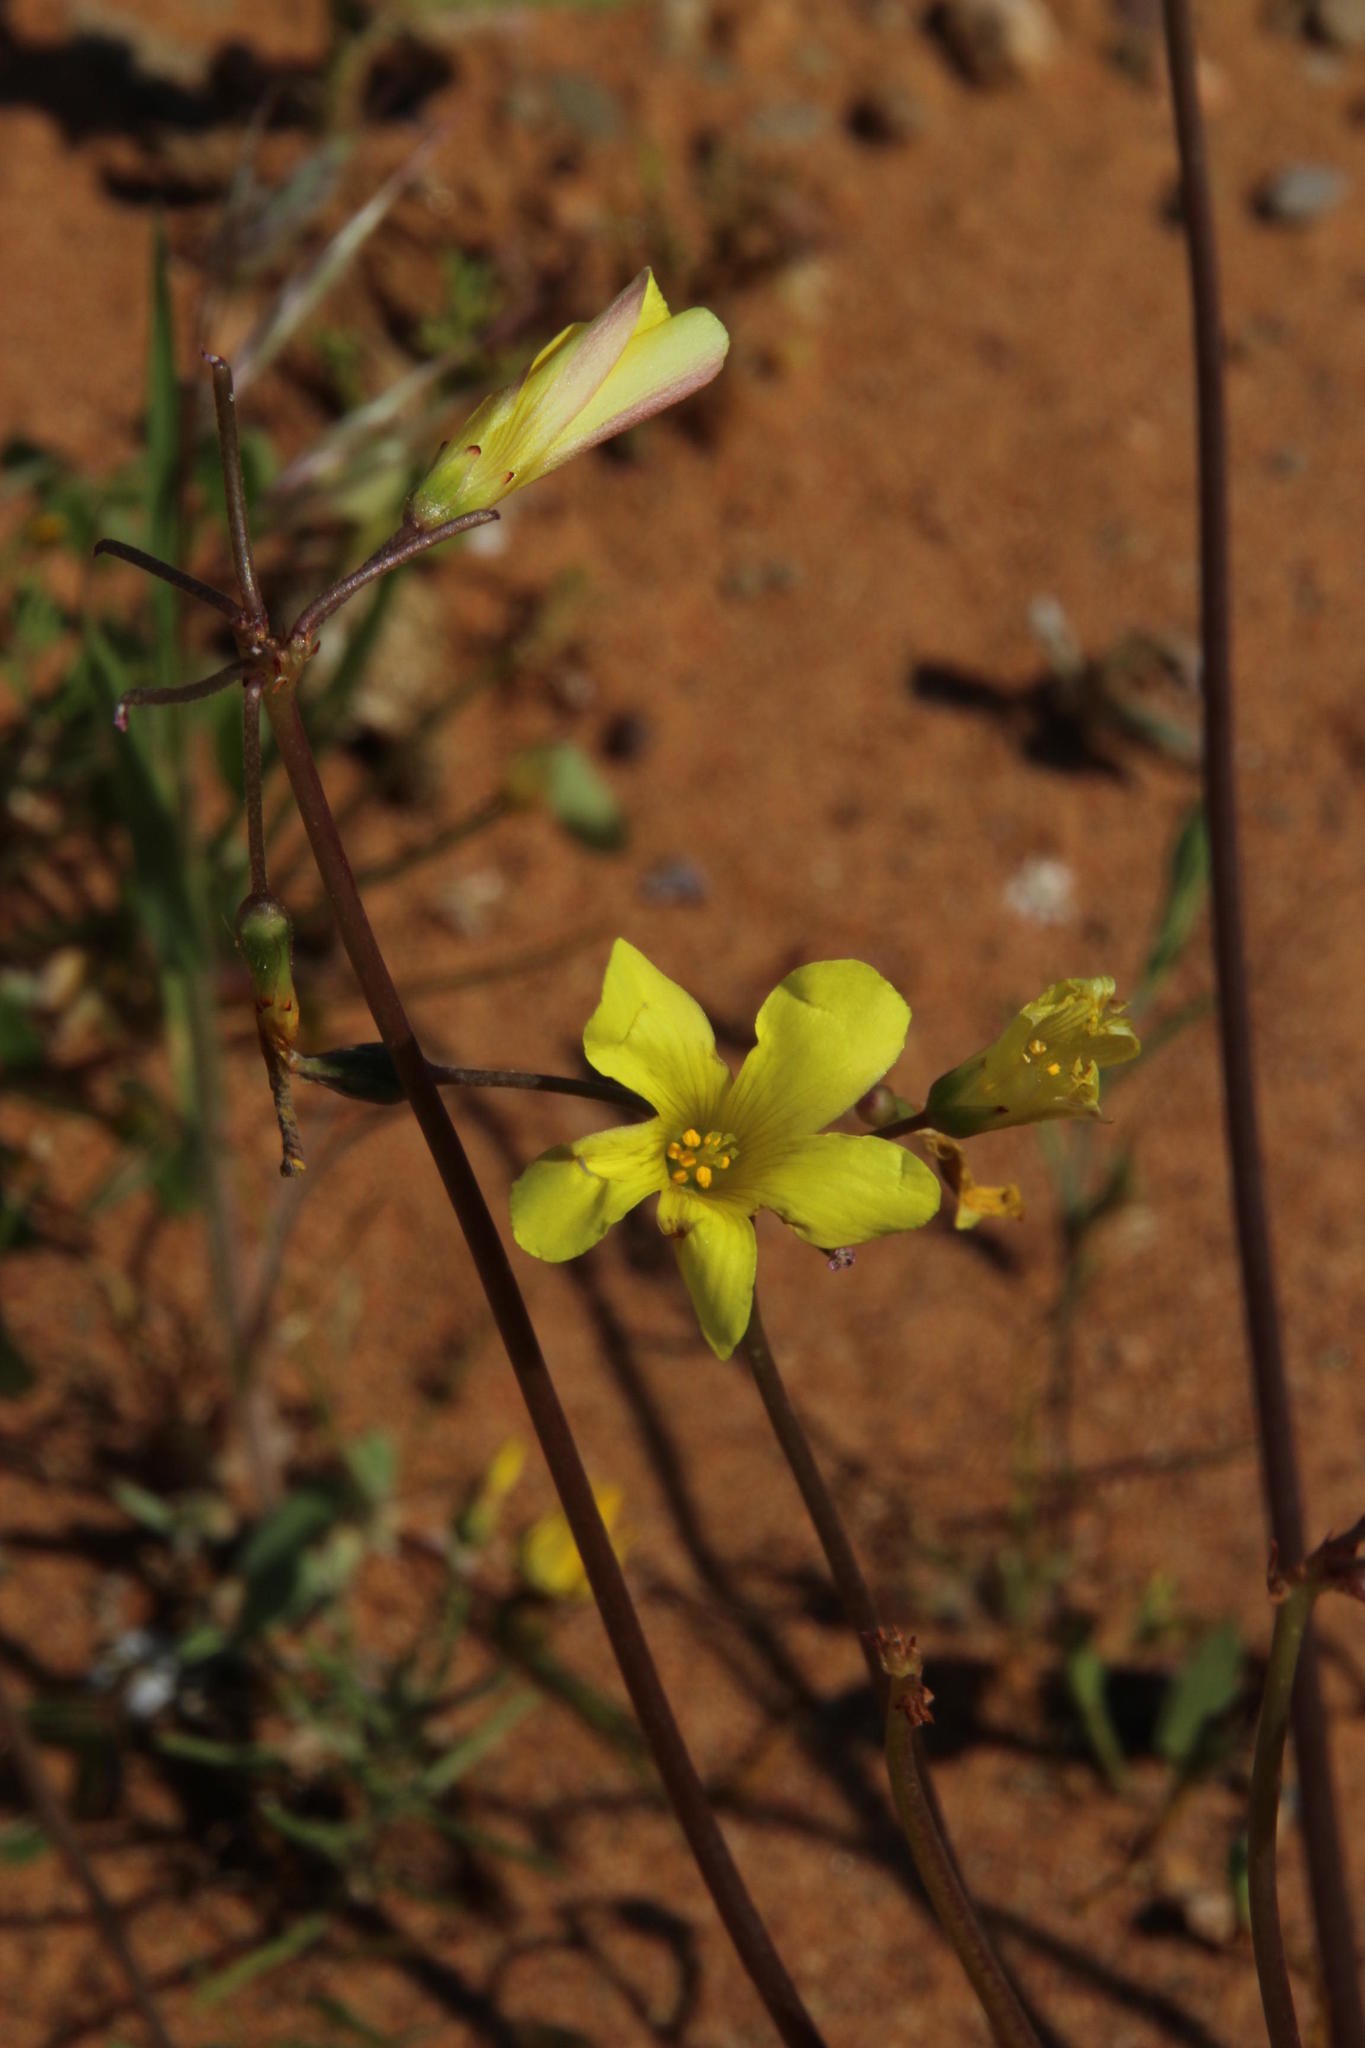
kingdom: Plantae
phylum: Tracheophyta
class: Magnoliopsida
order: Oxalidales
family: Oxalidaceae
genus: Oxalis
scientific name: Oxalis pes-caprae
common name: Bermuda-buttercup
